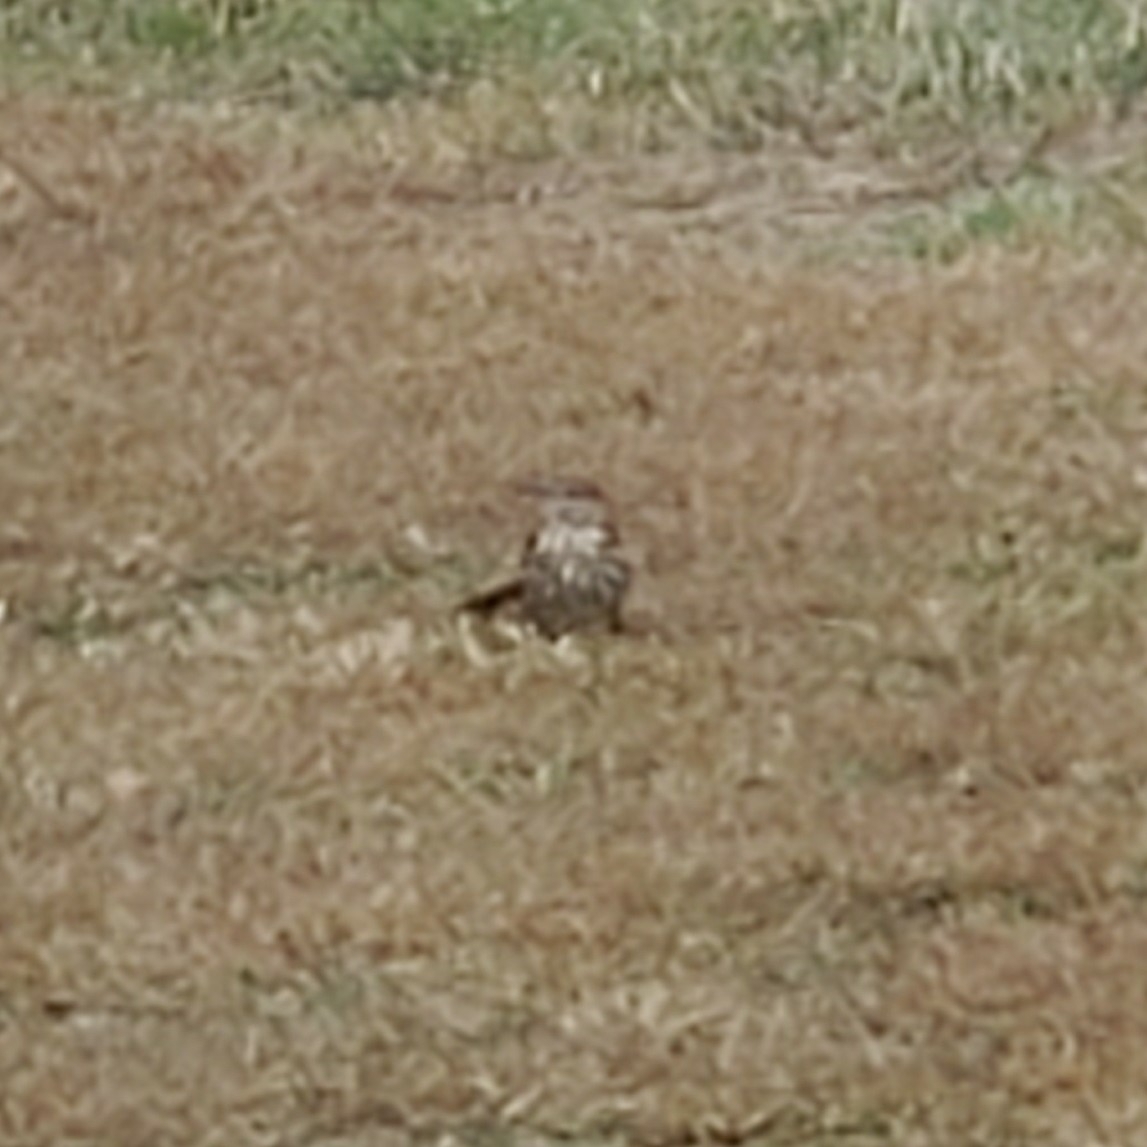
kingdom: Animalia
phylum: Chordata
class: Aves
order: Passeriformes
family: Mimidae
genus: Toxostoma
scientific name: Toxostoma rufum
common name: Brown thrasher
